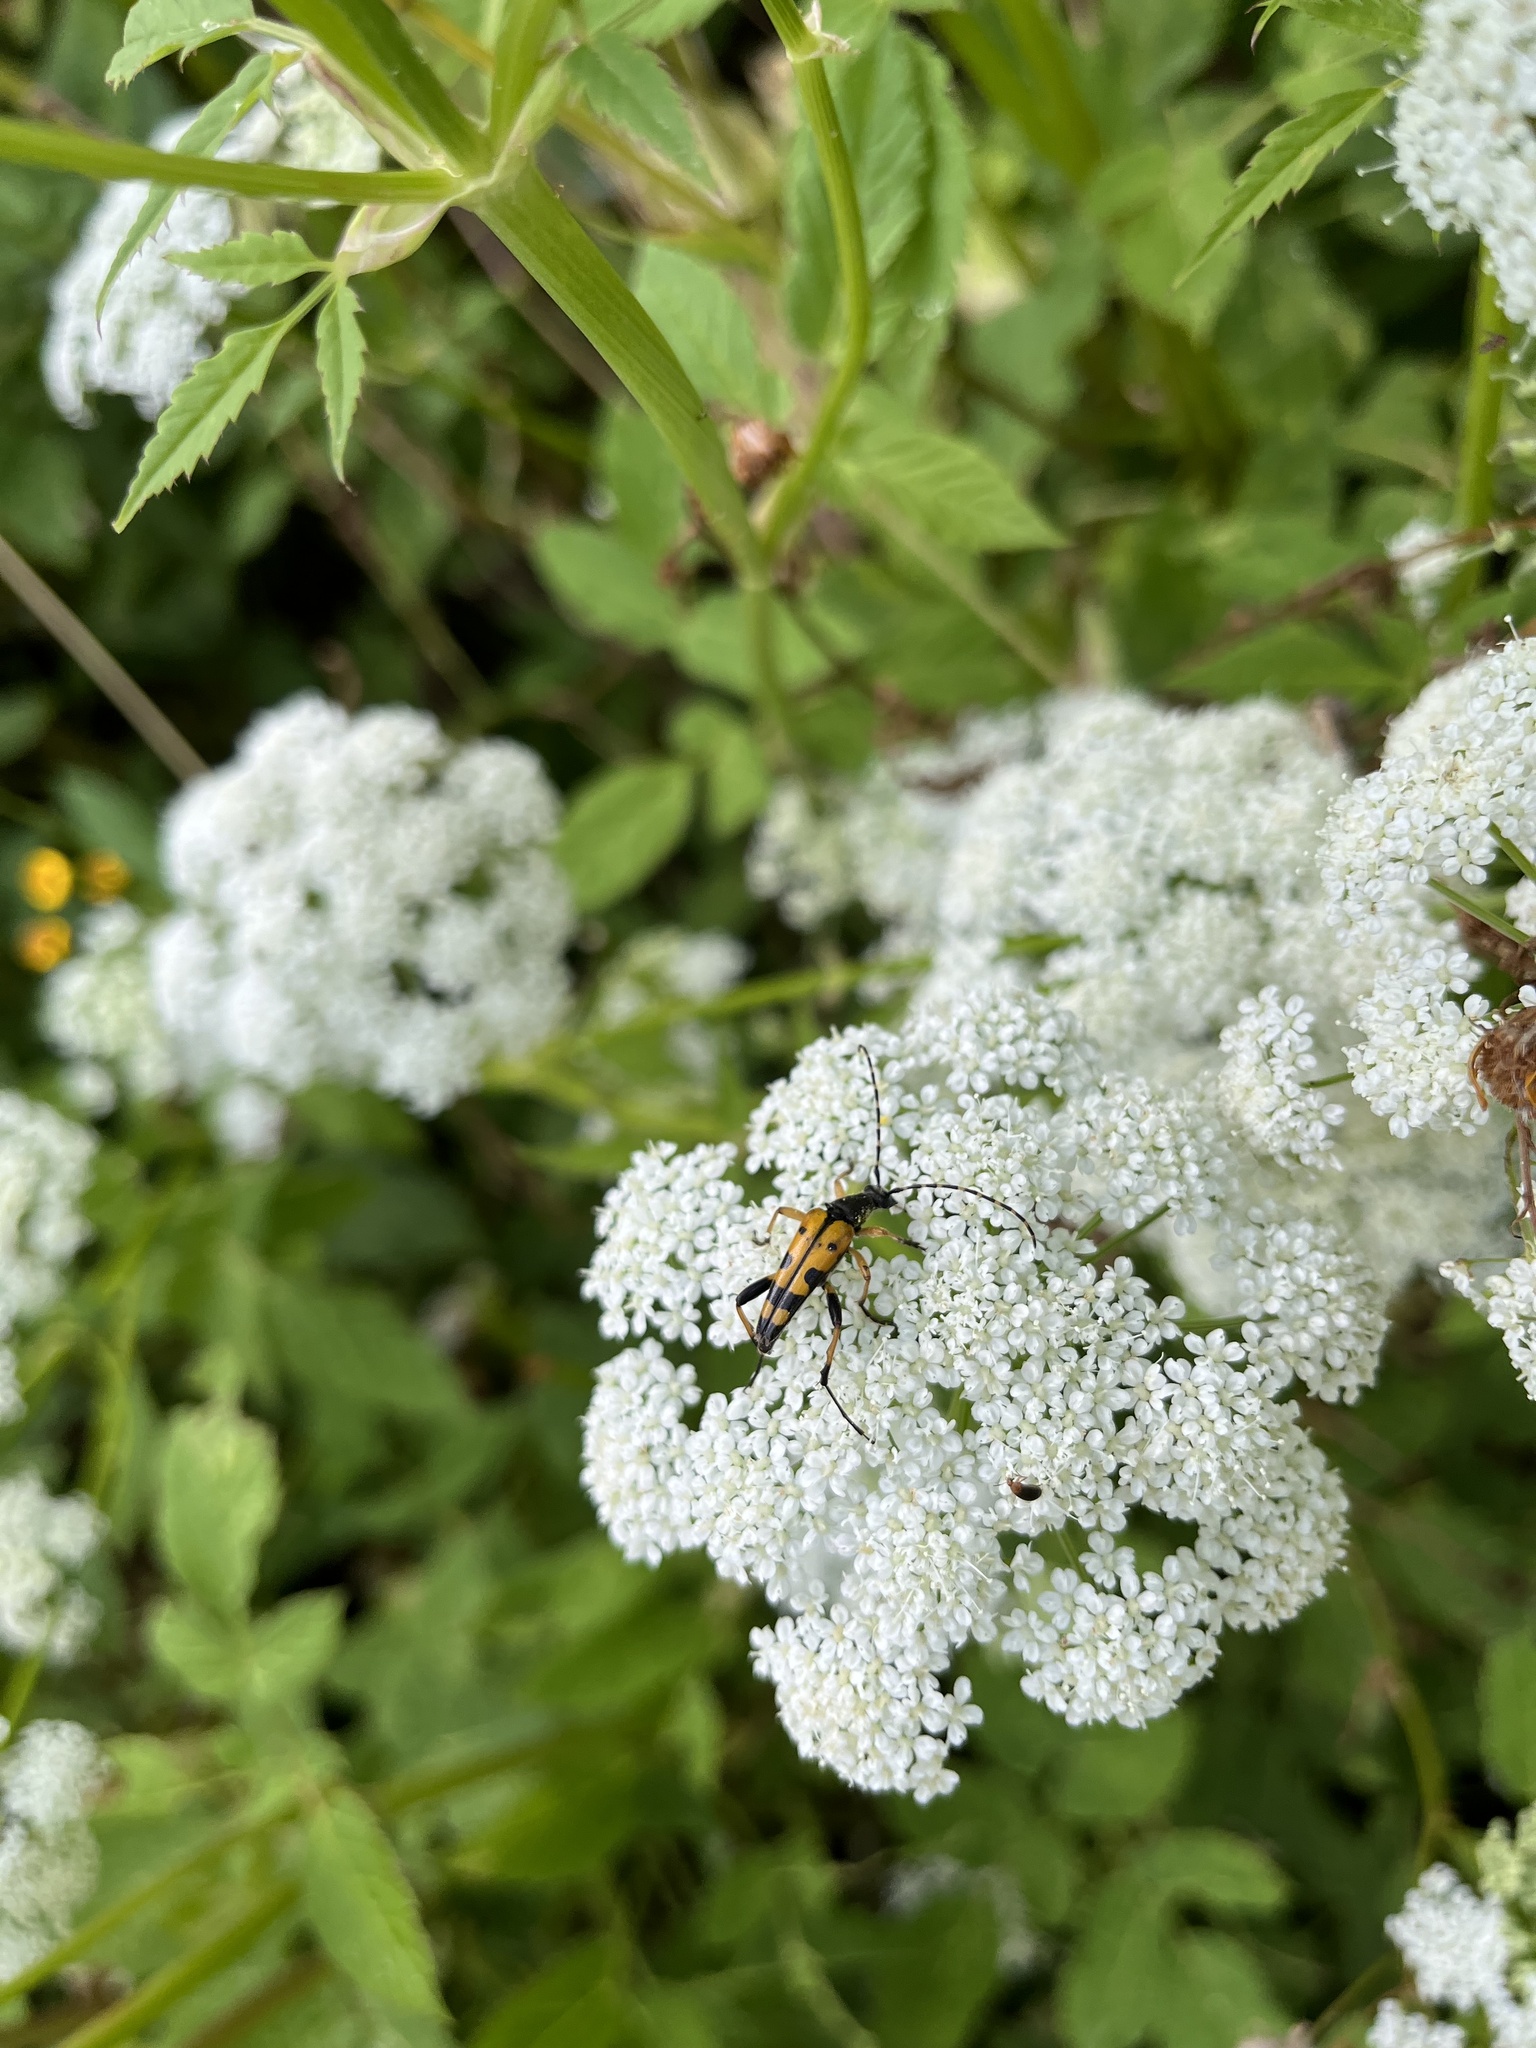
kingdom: Animalia
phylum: Arthropoda
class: Insecta
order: Coleoptera
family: Cerambycidae
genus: Rutpela
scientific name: Rutpela maculata
